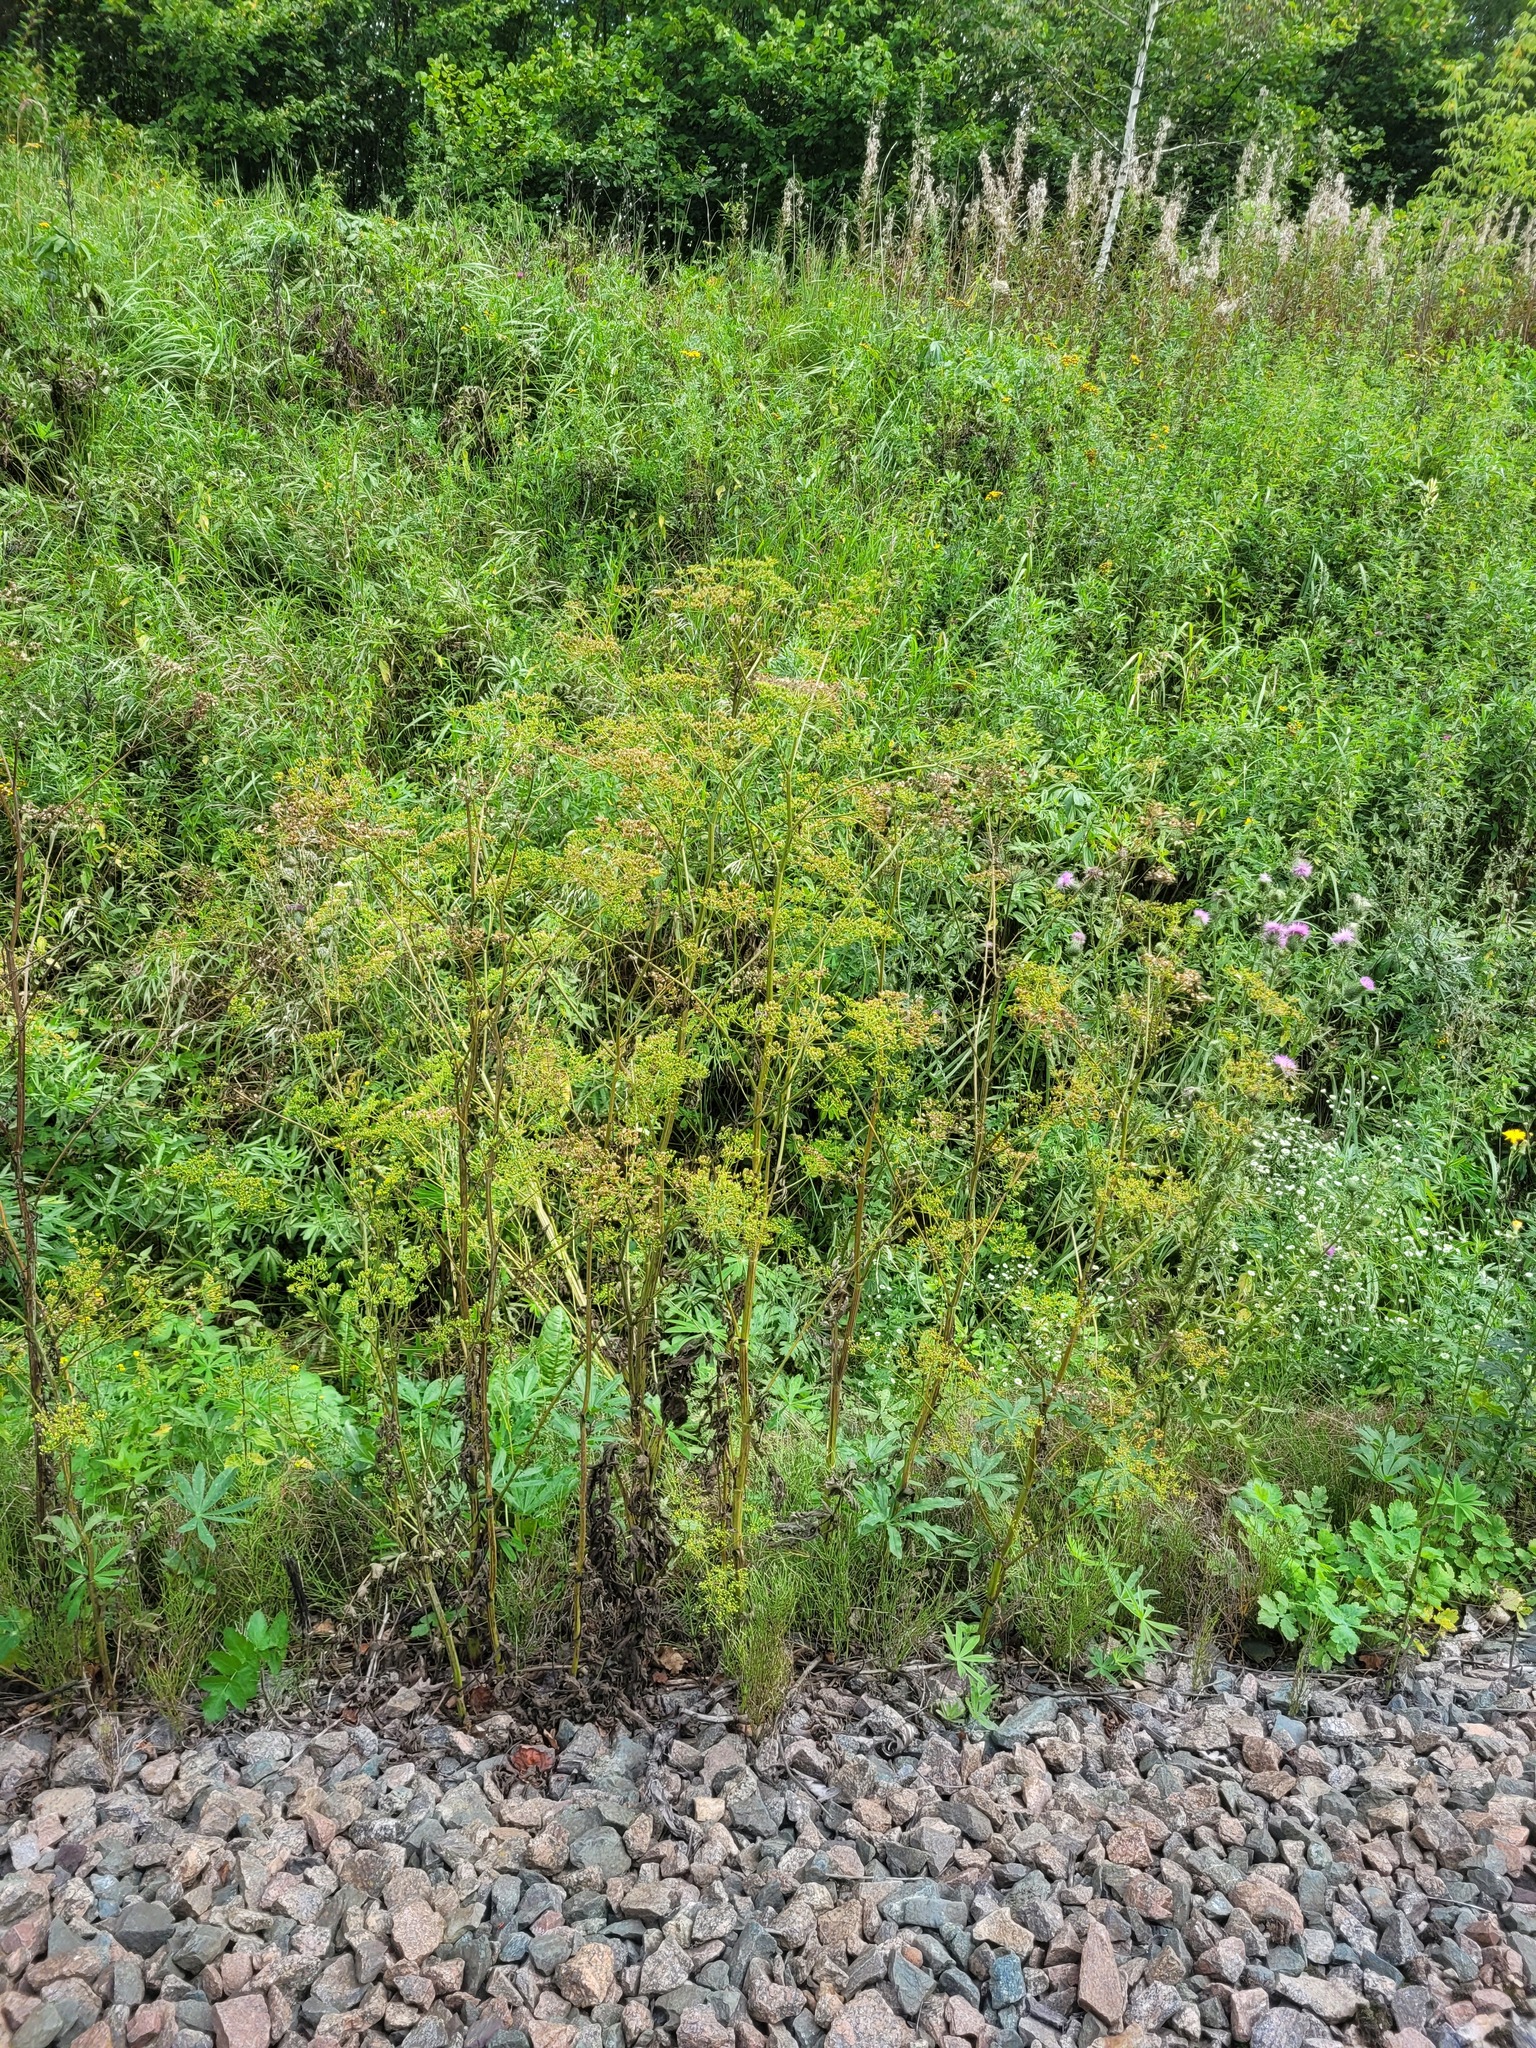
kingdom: Plantae
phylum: Tracheophyta
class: Magnoliopsida
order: Apiales
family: Apiaceae
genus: Pastinaca
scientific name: Pastinaca sativa
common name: Wild parsnip
